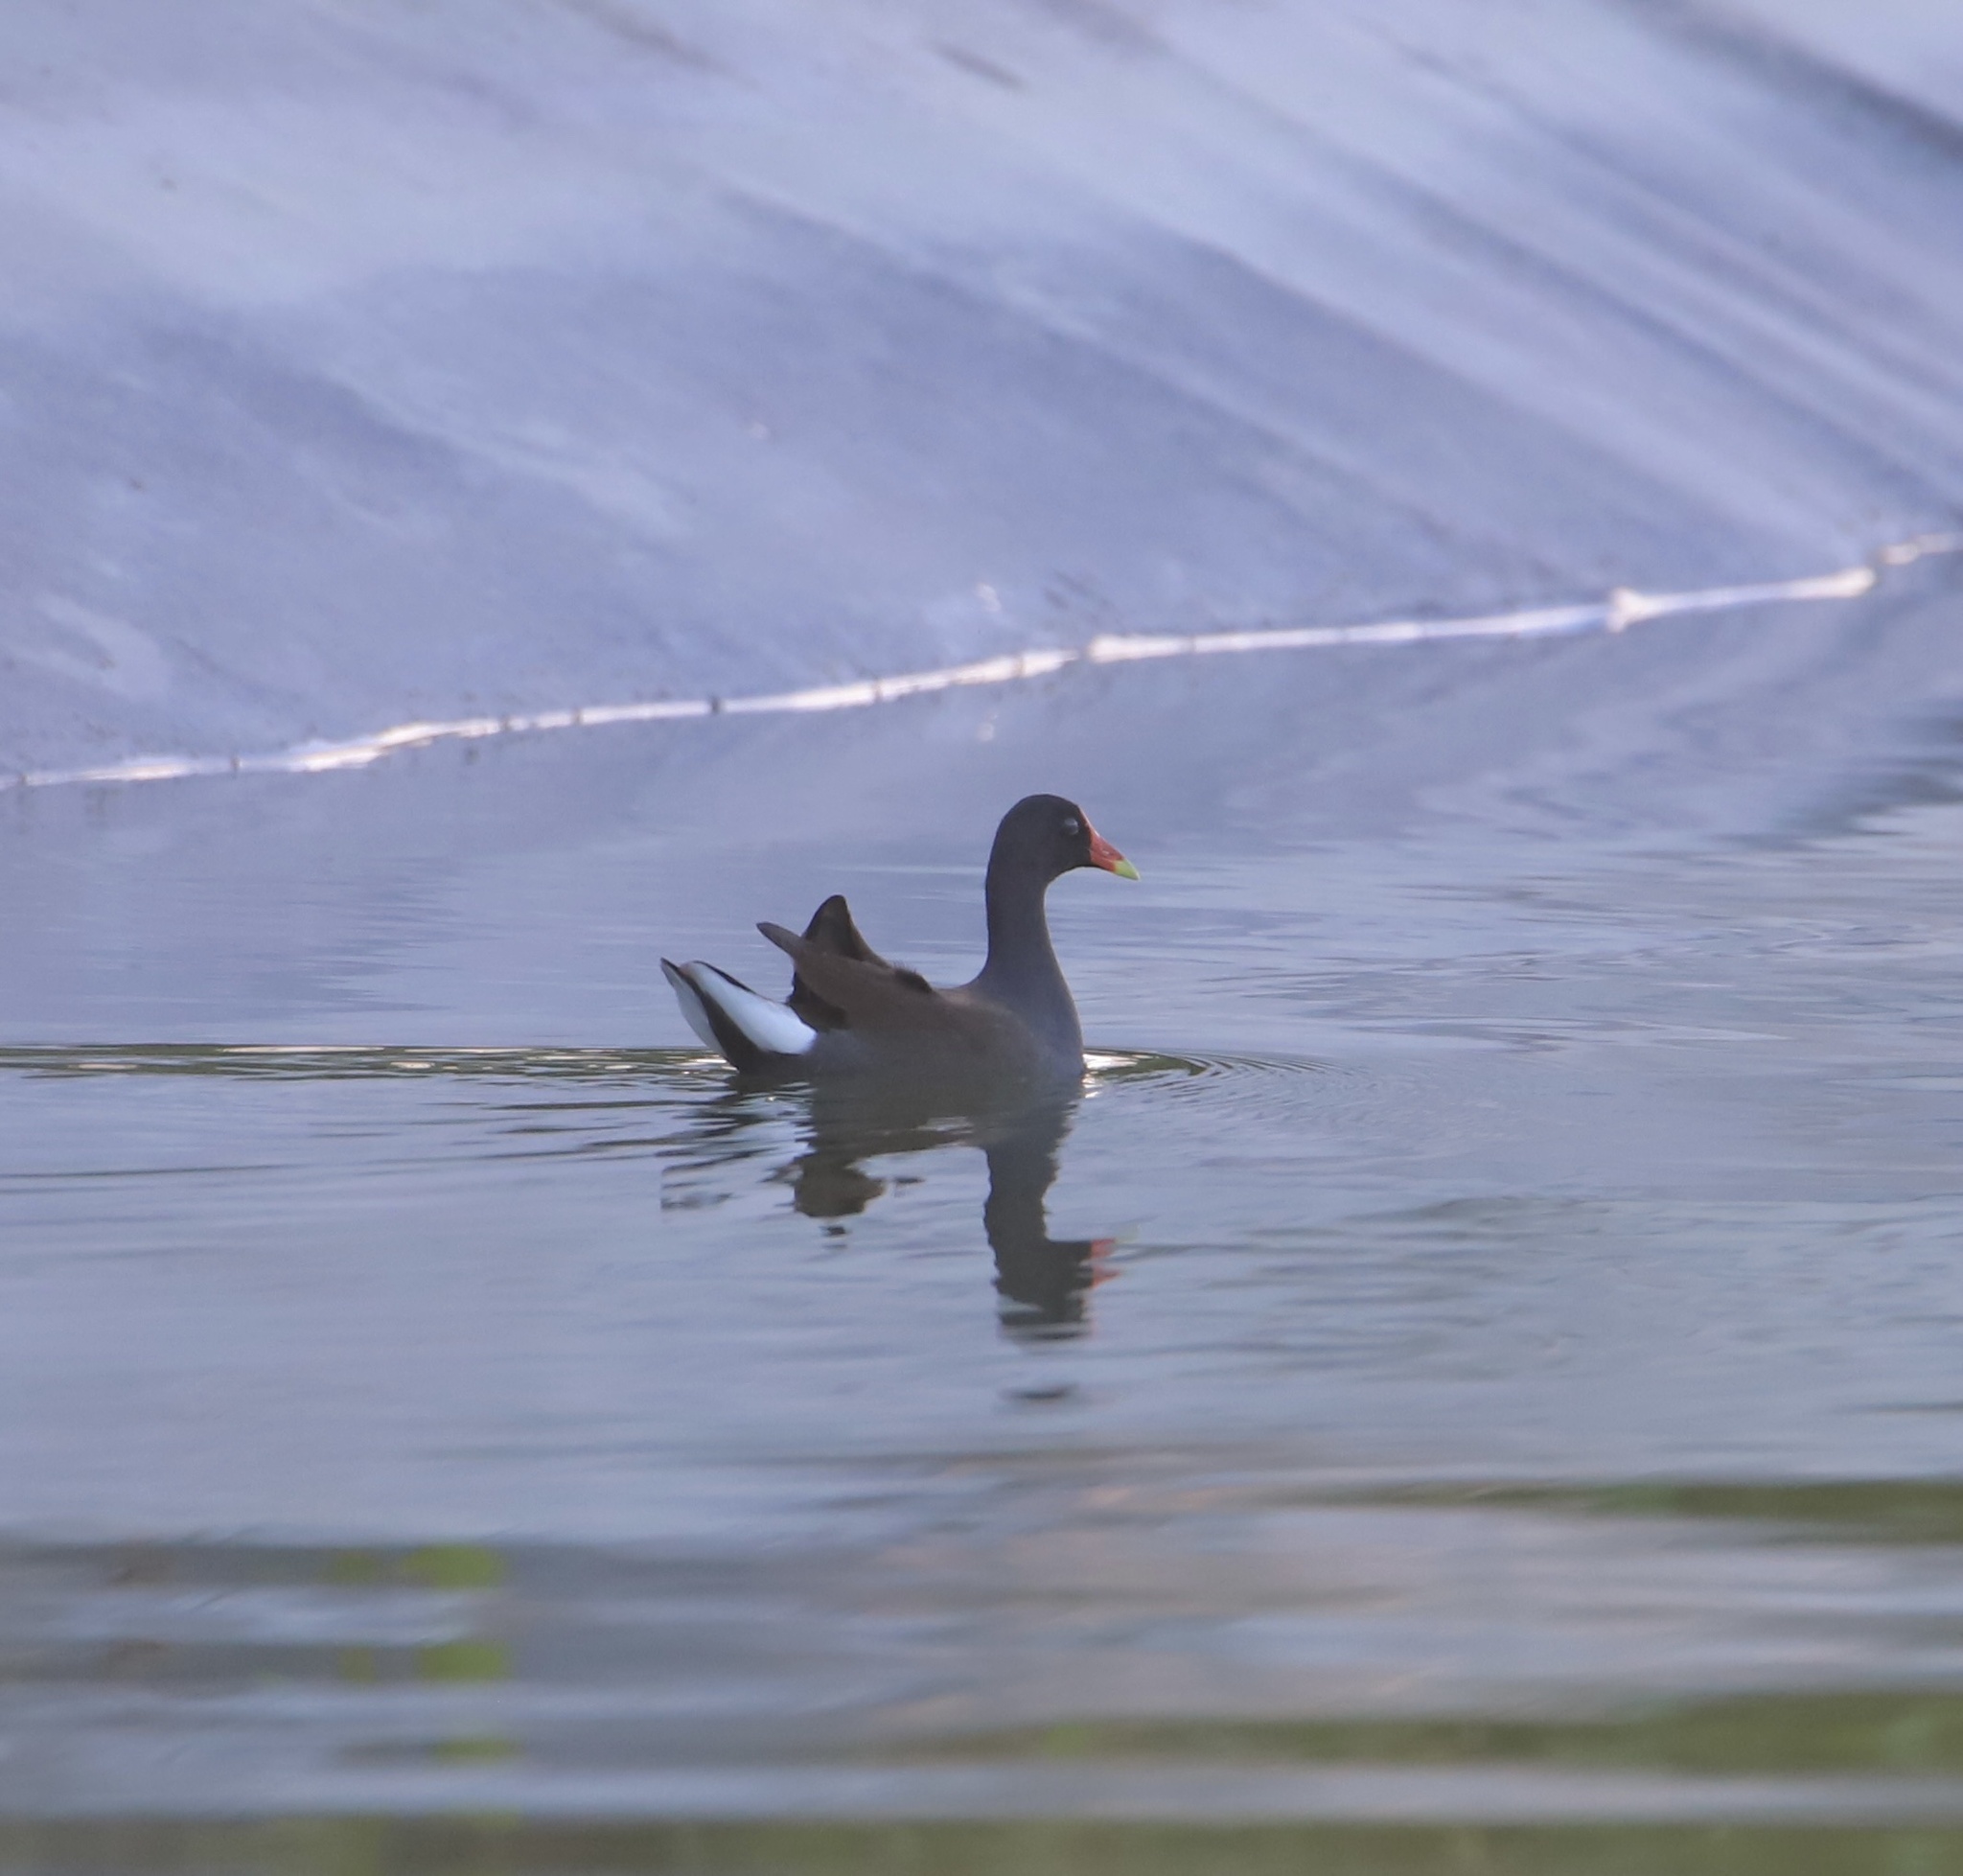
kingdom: Animalia
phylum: Chordata
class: Aves
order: Gruiformes
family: Rallidae
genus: Gallinula
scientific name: Gallinula chloropus
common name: Common moorhen
